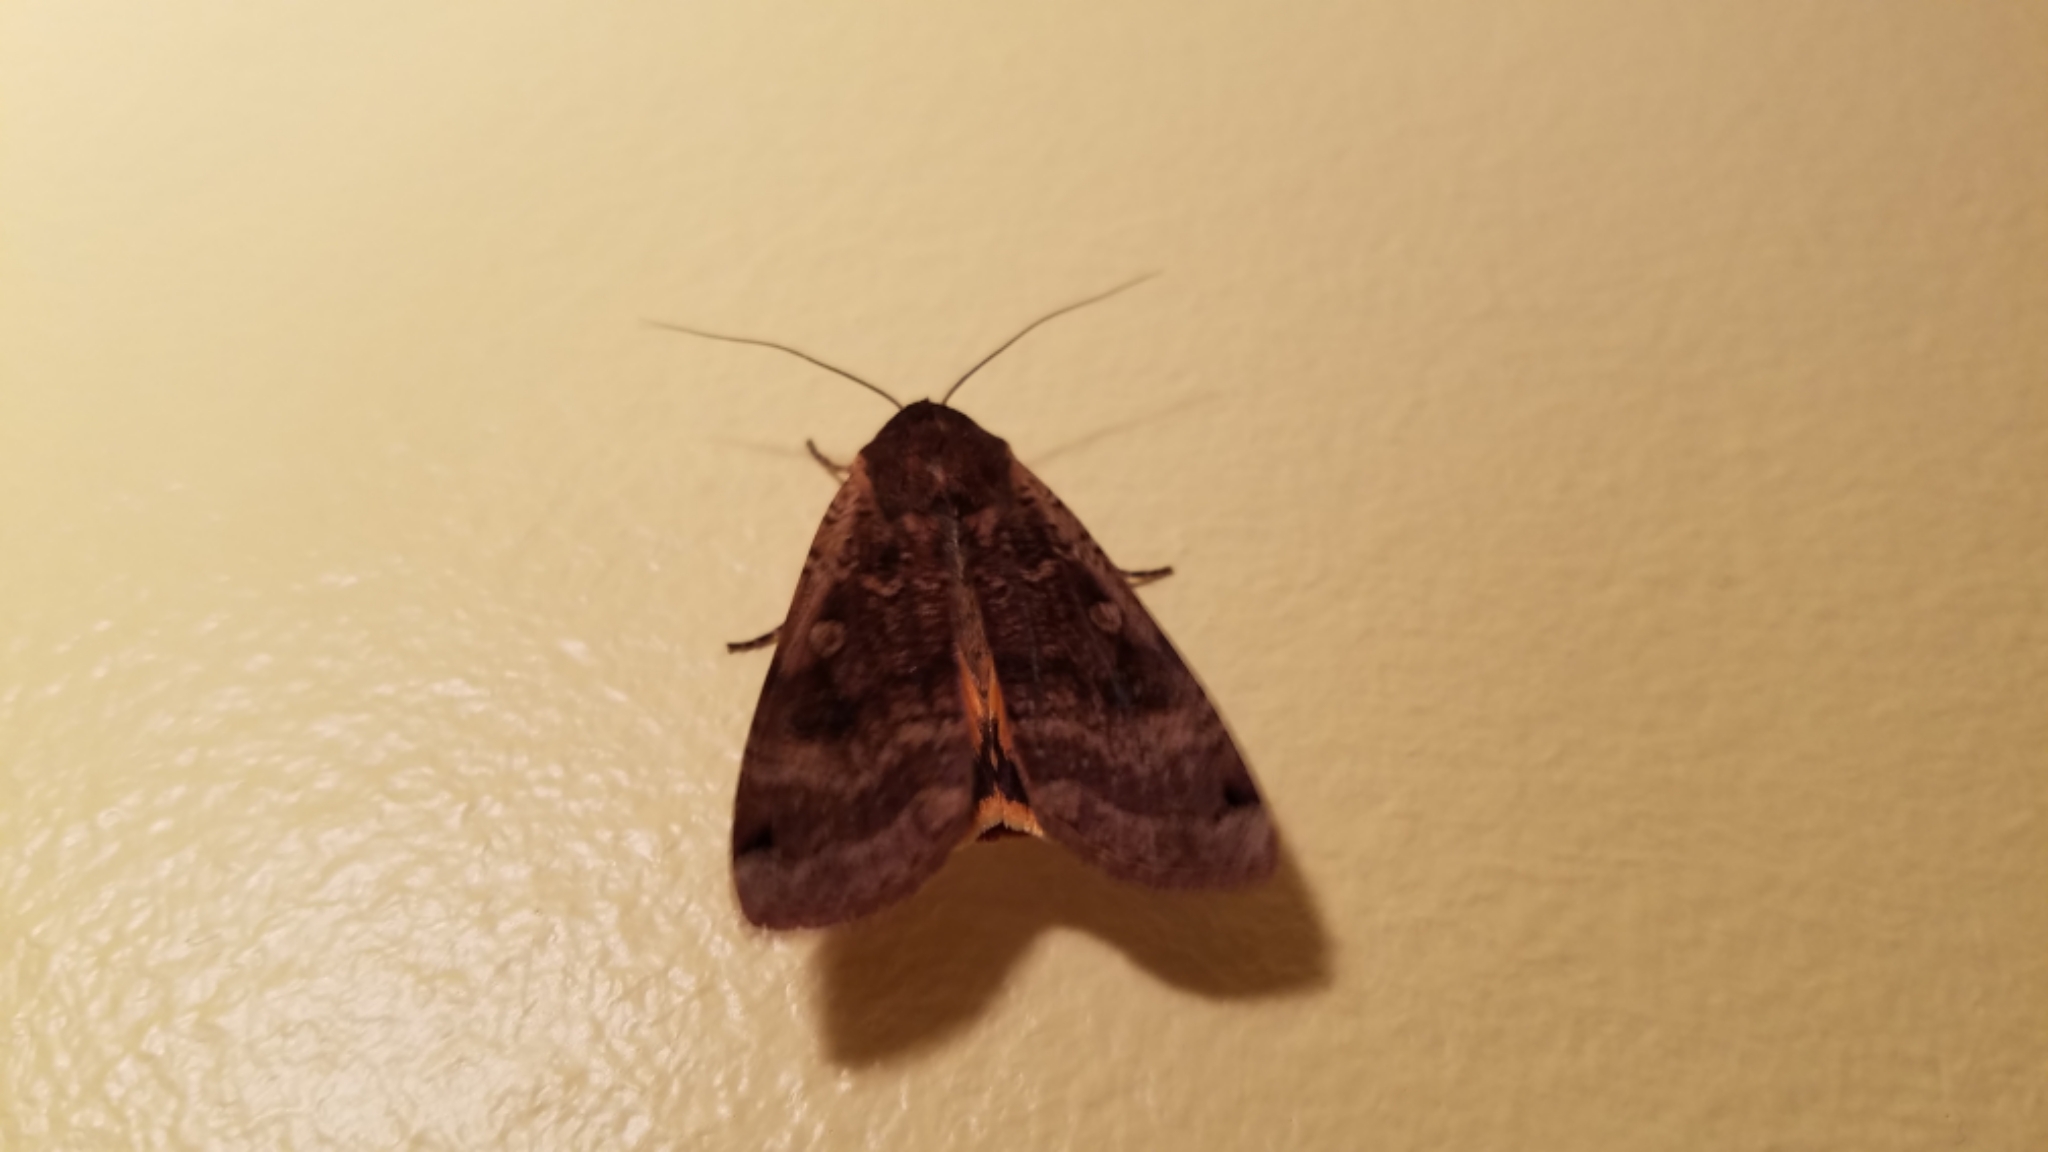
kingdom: Animalia
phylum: Arthropoda
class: Insecta
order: Lepidoptera
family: Noctuidae
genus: Noctua
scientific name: Noctua pronuba
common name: Large yellow underwing
